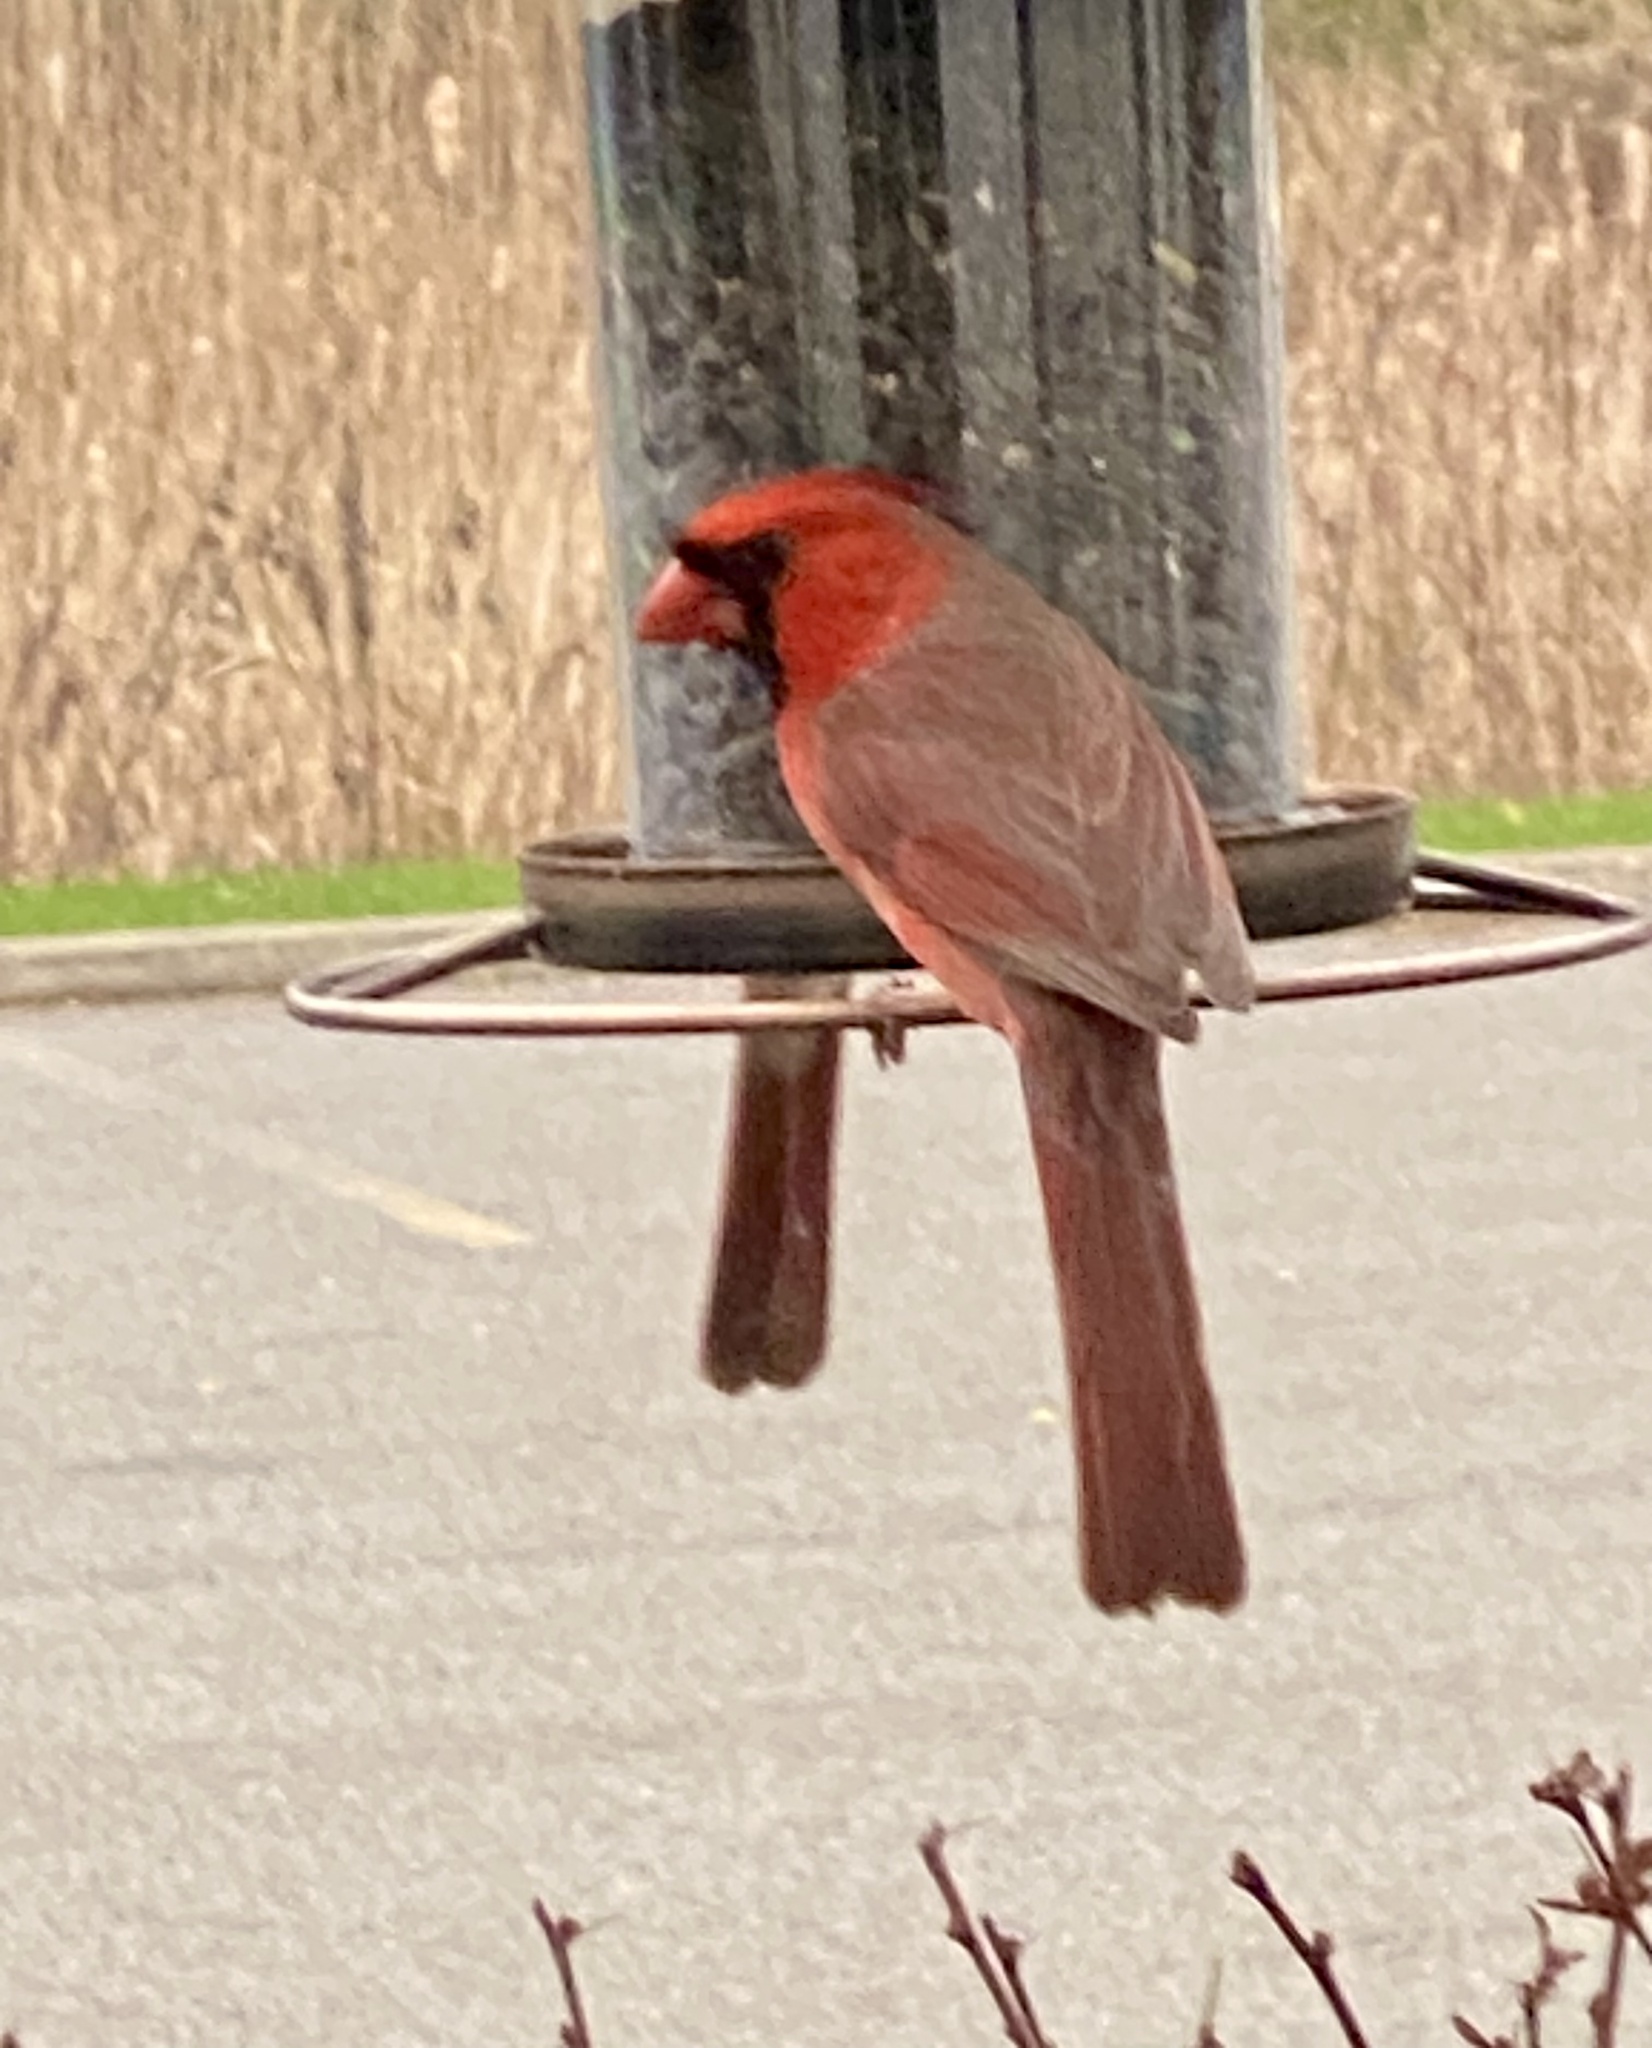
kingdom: Animalia
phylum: Chordata
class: Aves
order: Passeriformes
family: Cardinalidae
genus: Cardinalis
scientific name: Cardinalis cardinalis
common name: Northern cardinal
